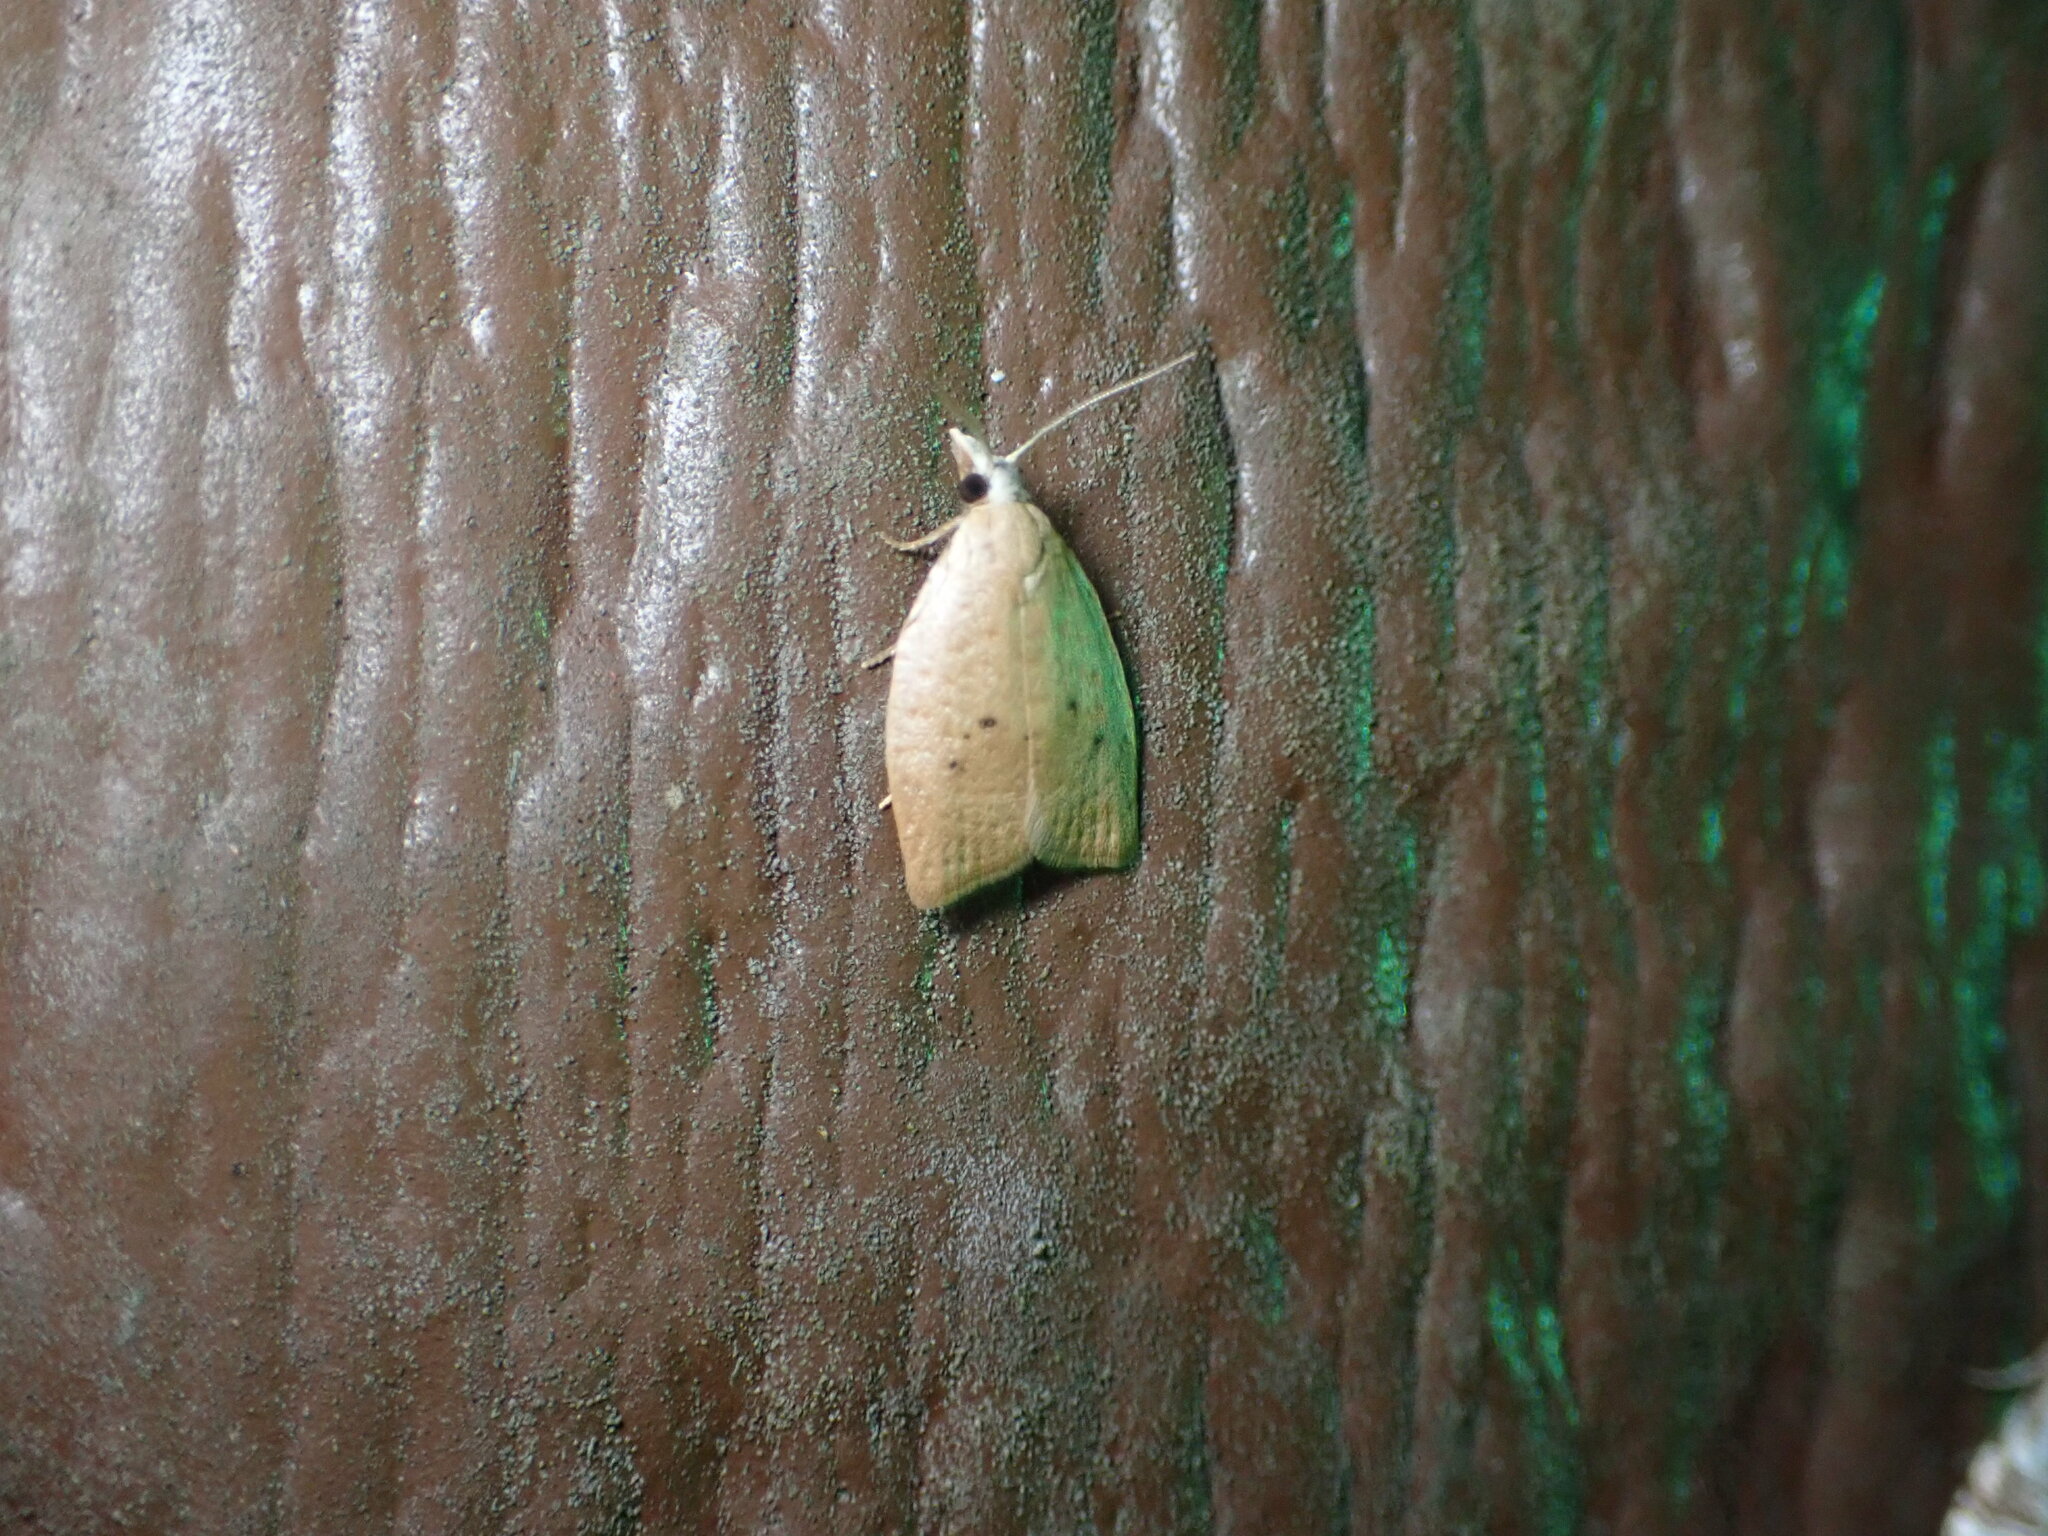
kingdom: Animalia
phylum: Arthropoda
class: Insecta
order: Lepidoptera
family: Tortricidae
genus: Sparganothoides
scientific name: Sparganothoides lentiginosana
